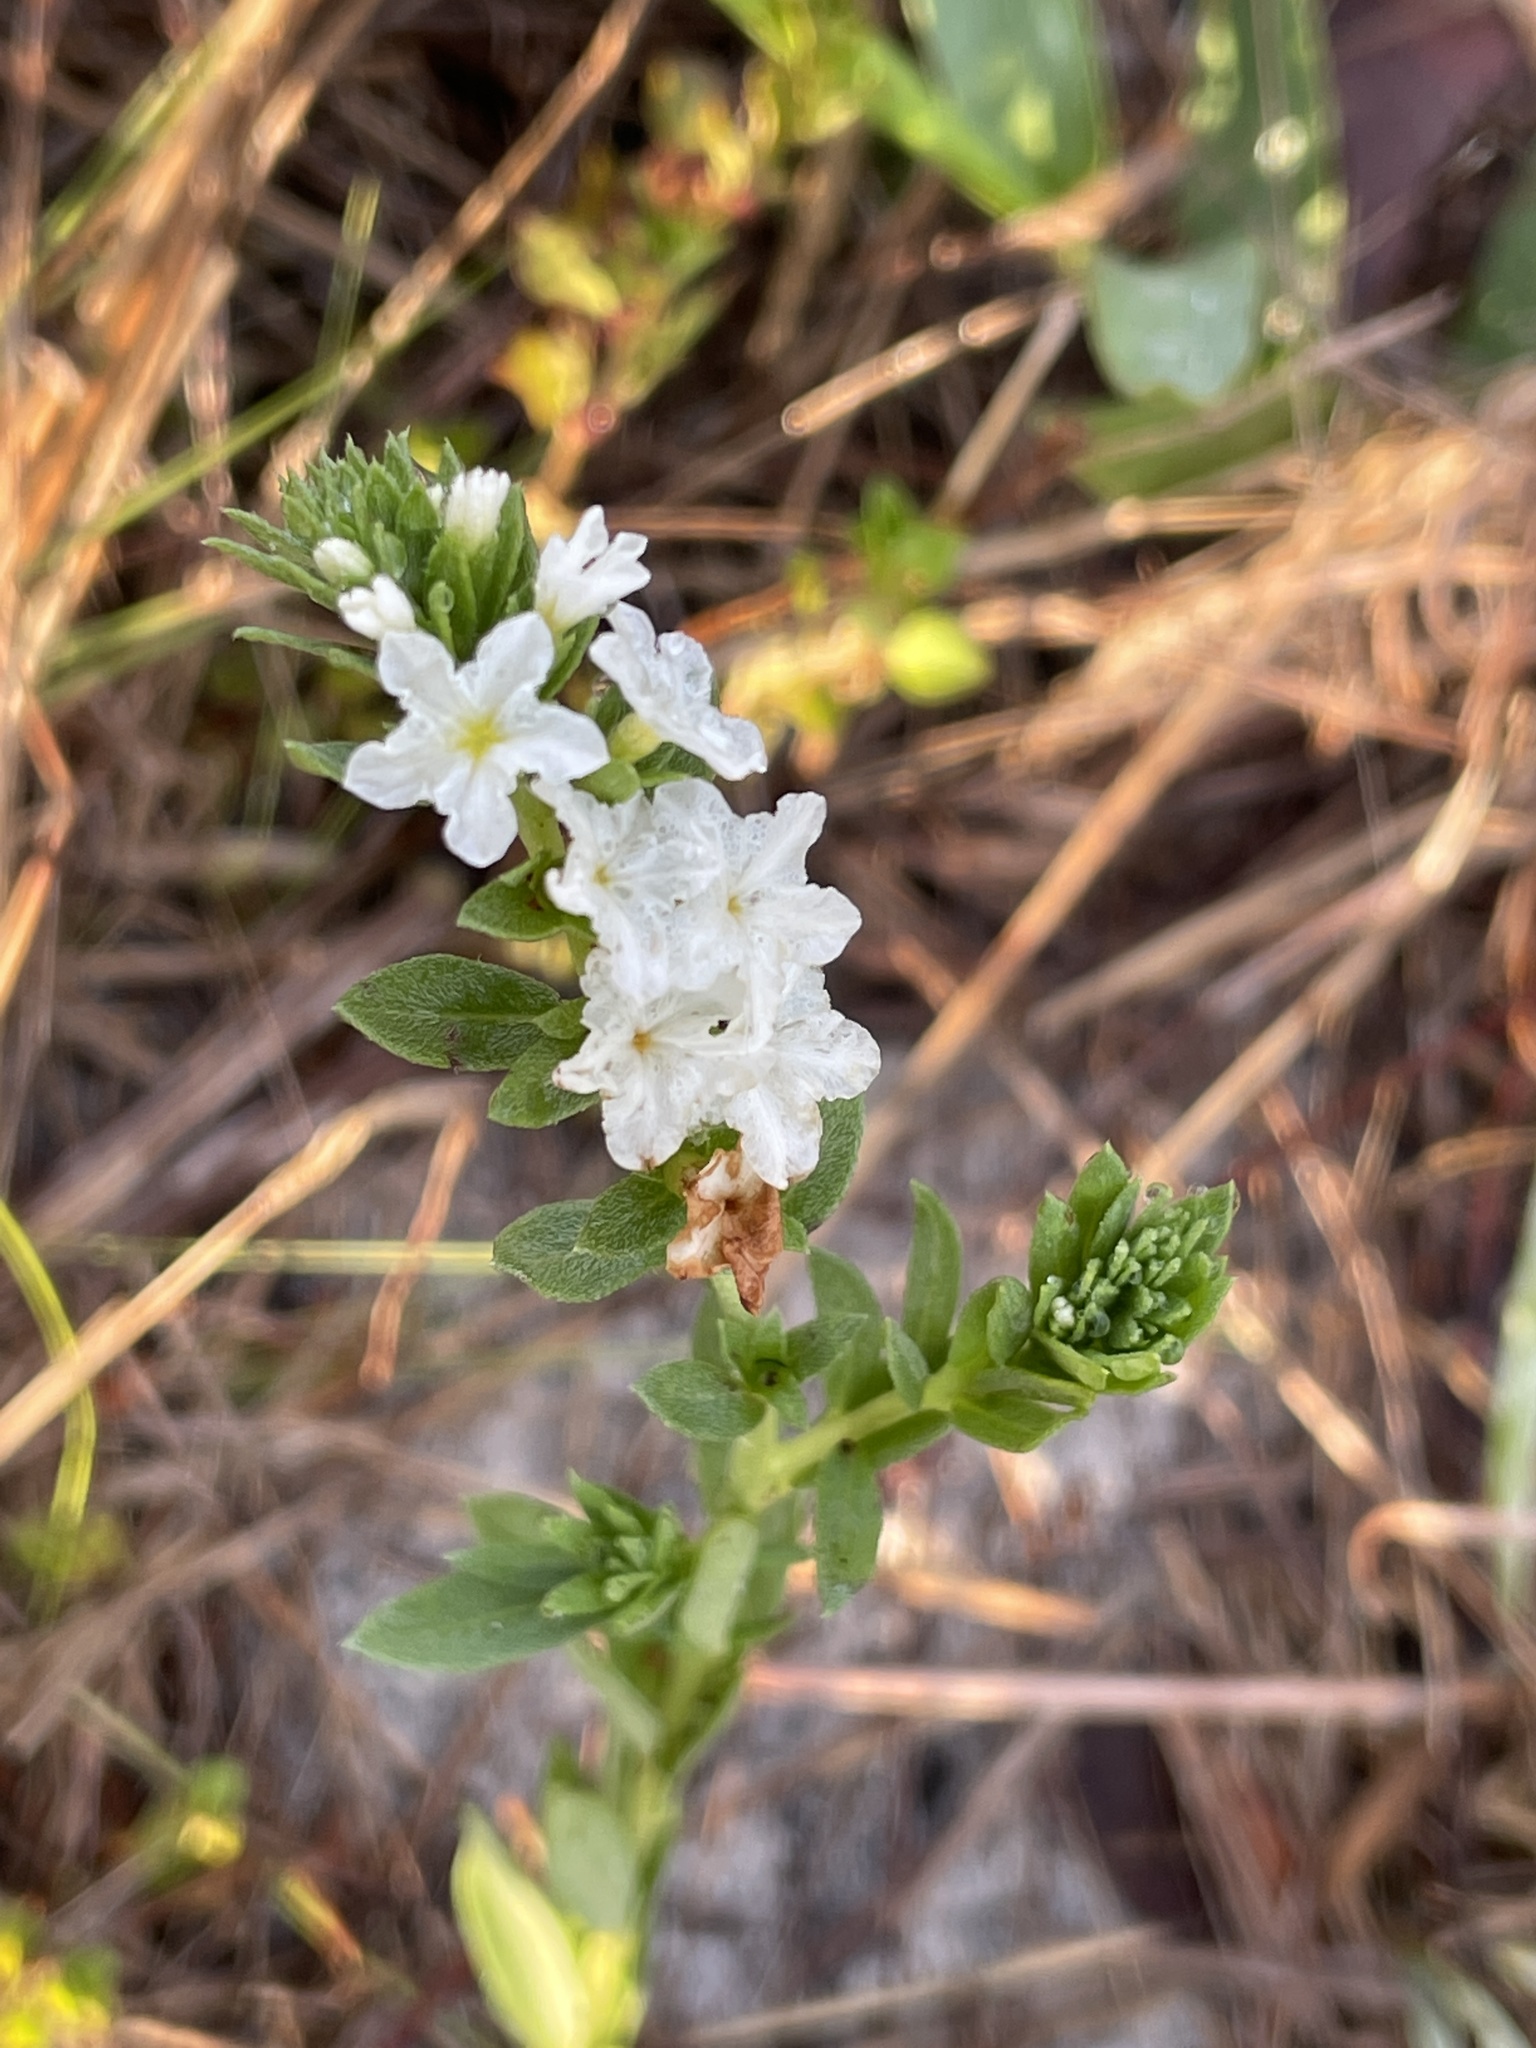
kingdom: Plantae
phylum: Tracheophyta
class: Magnoliopsida
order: Boraginales
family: Heliotropiaceae
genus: Euploca
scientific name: Euploca polyphylla
